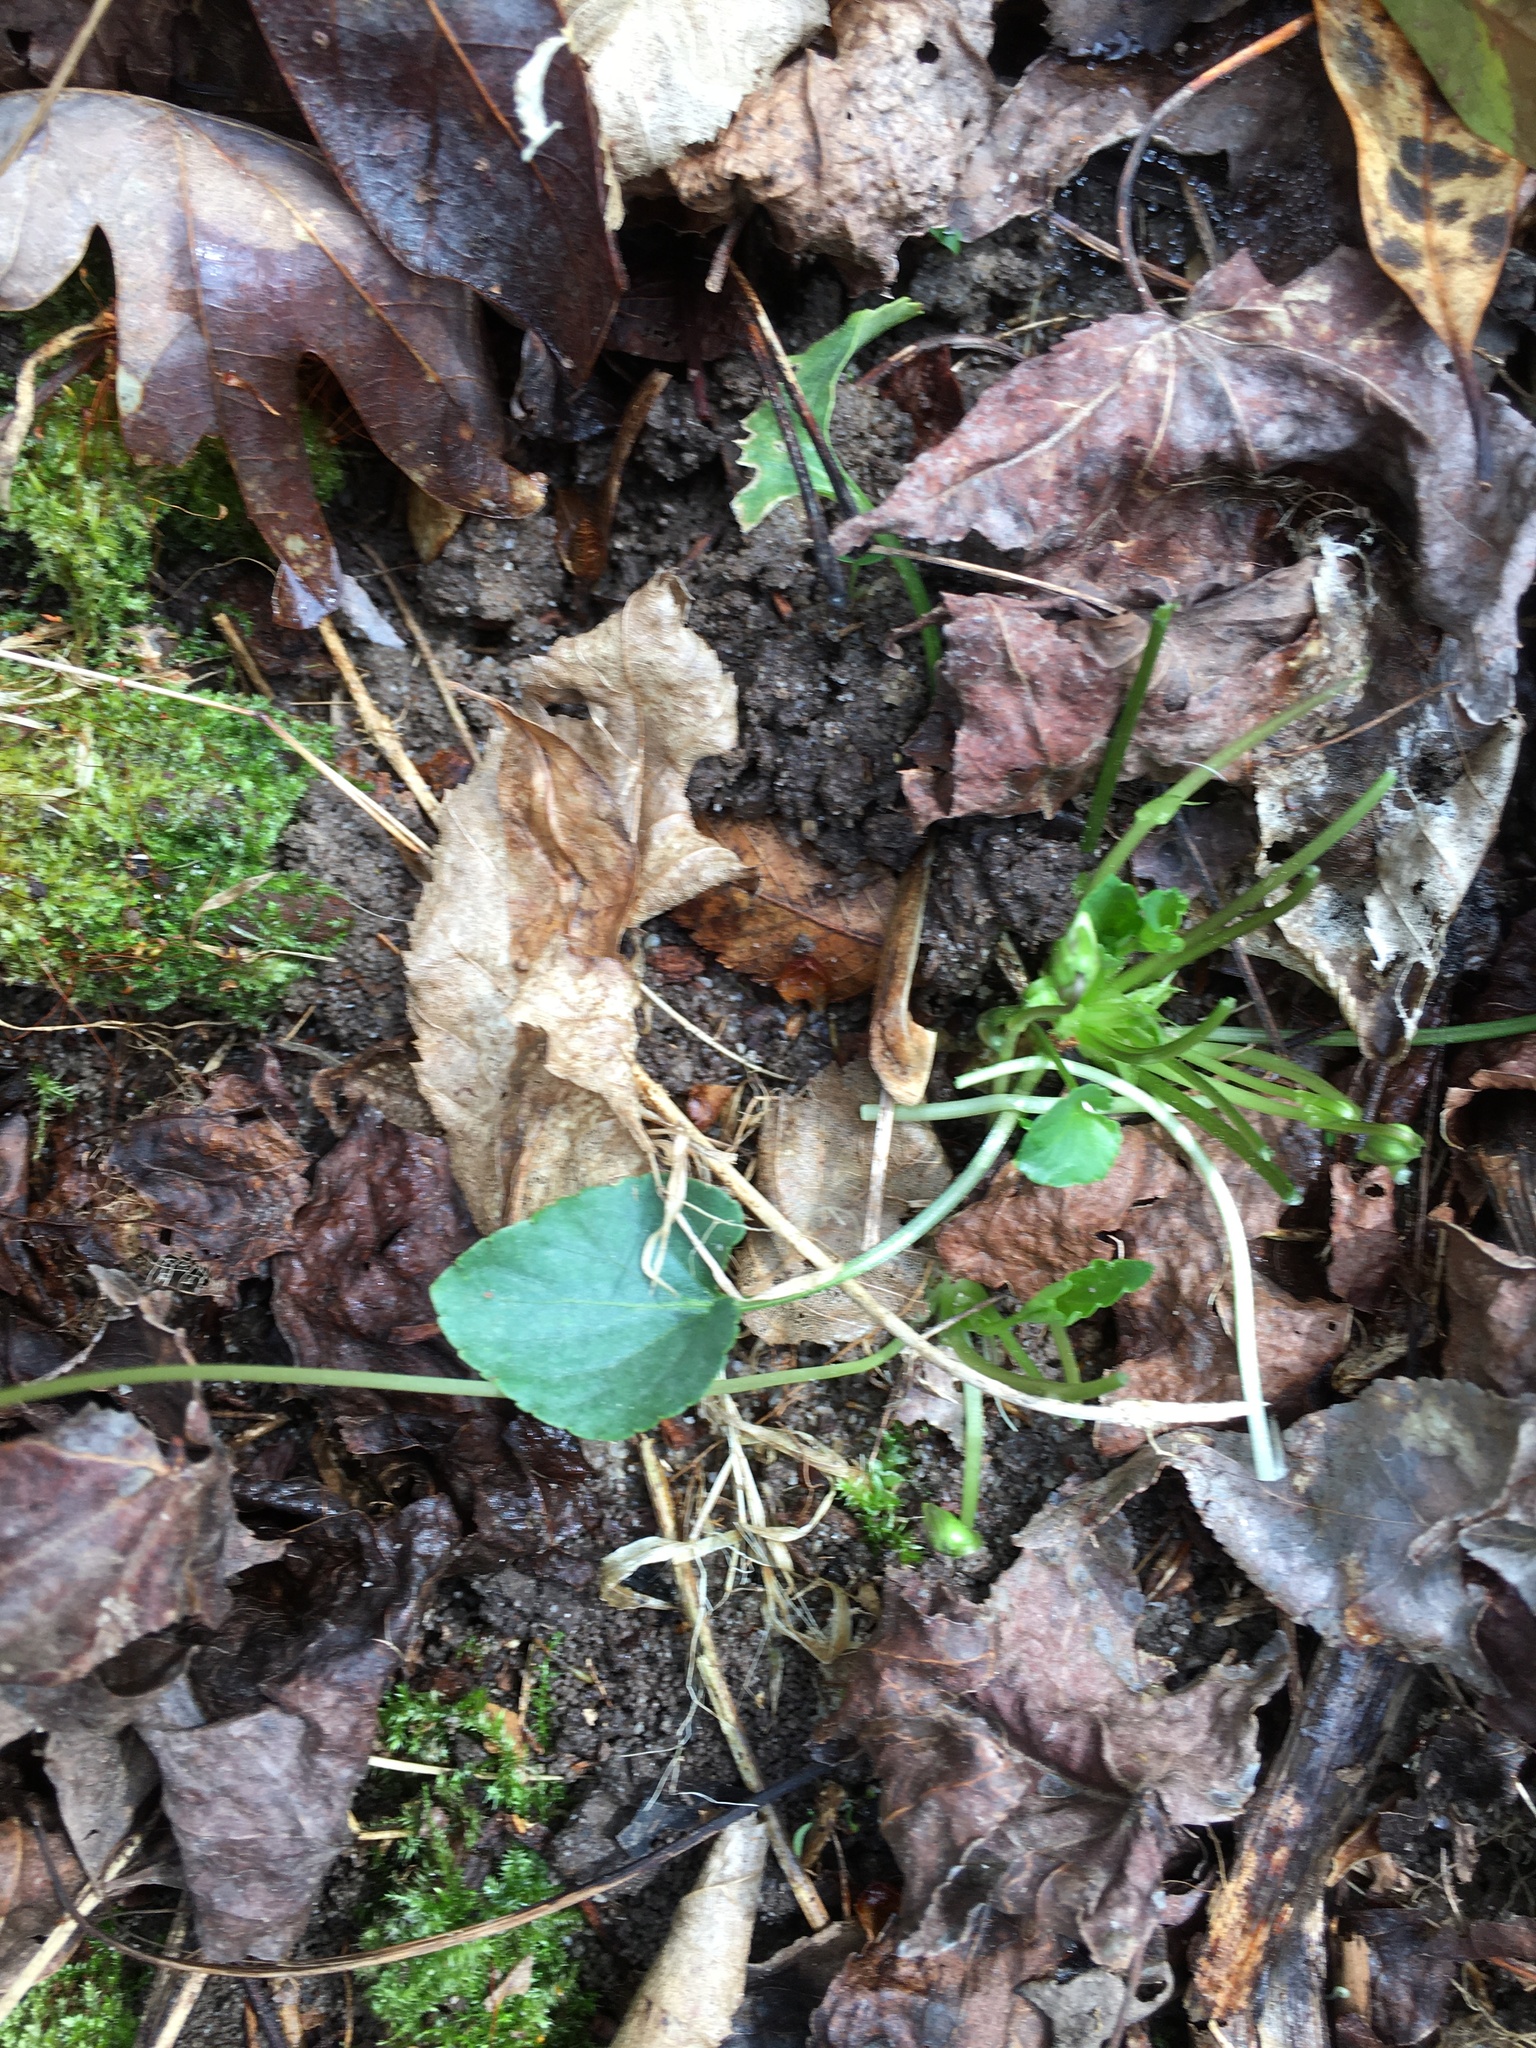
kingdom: Plantae
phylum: Tracheophyta
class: Magnoliopsida
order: Malpighiales
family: Violaceae
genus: Viola
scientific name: Viola sororia
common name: Dooryard violet
